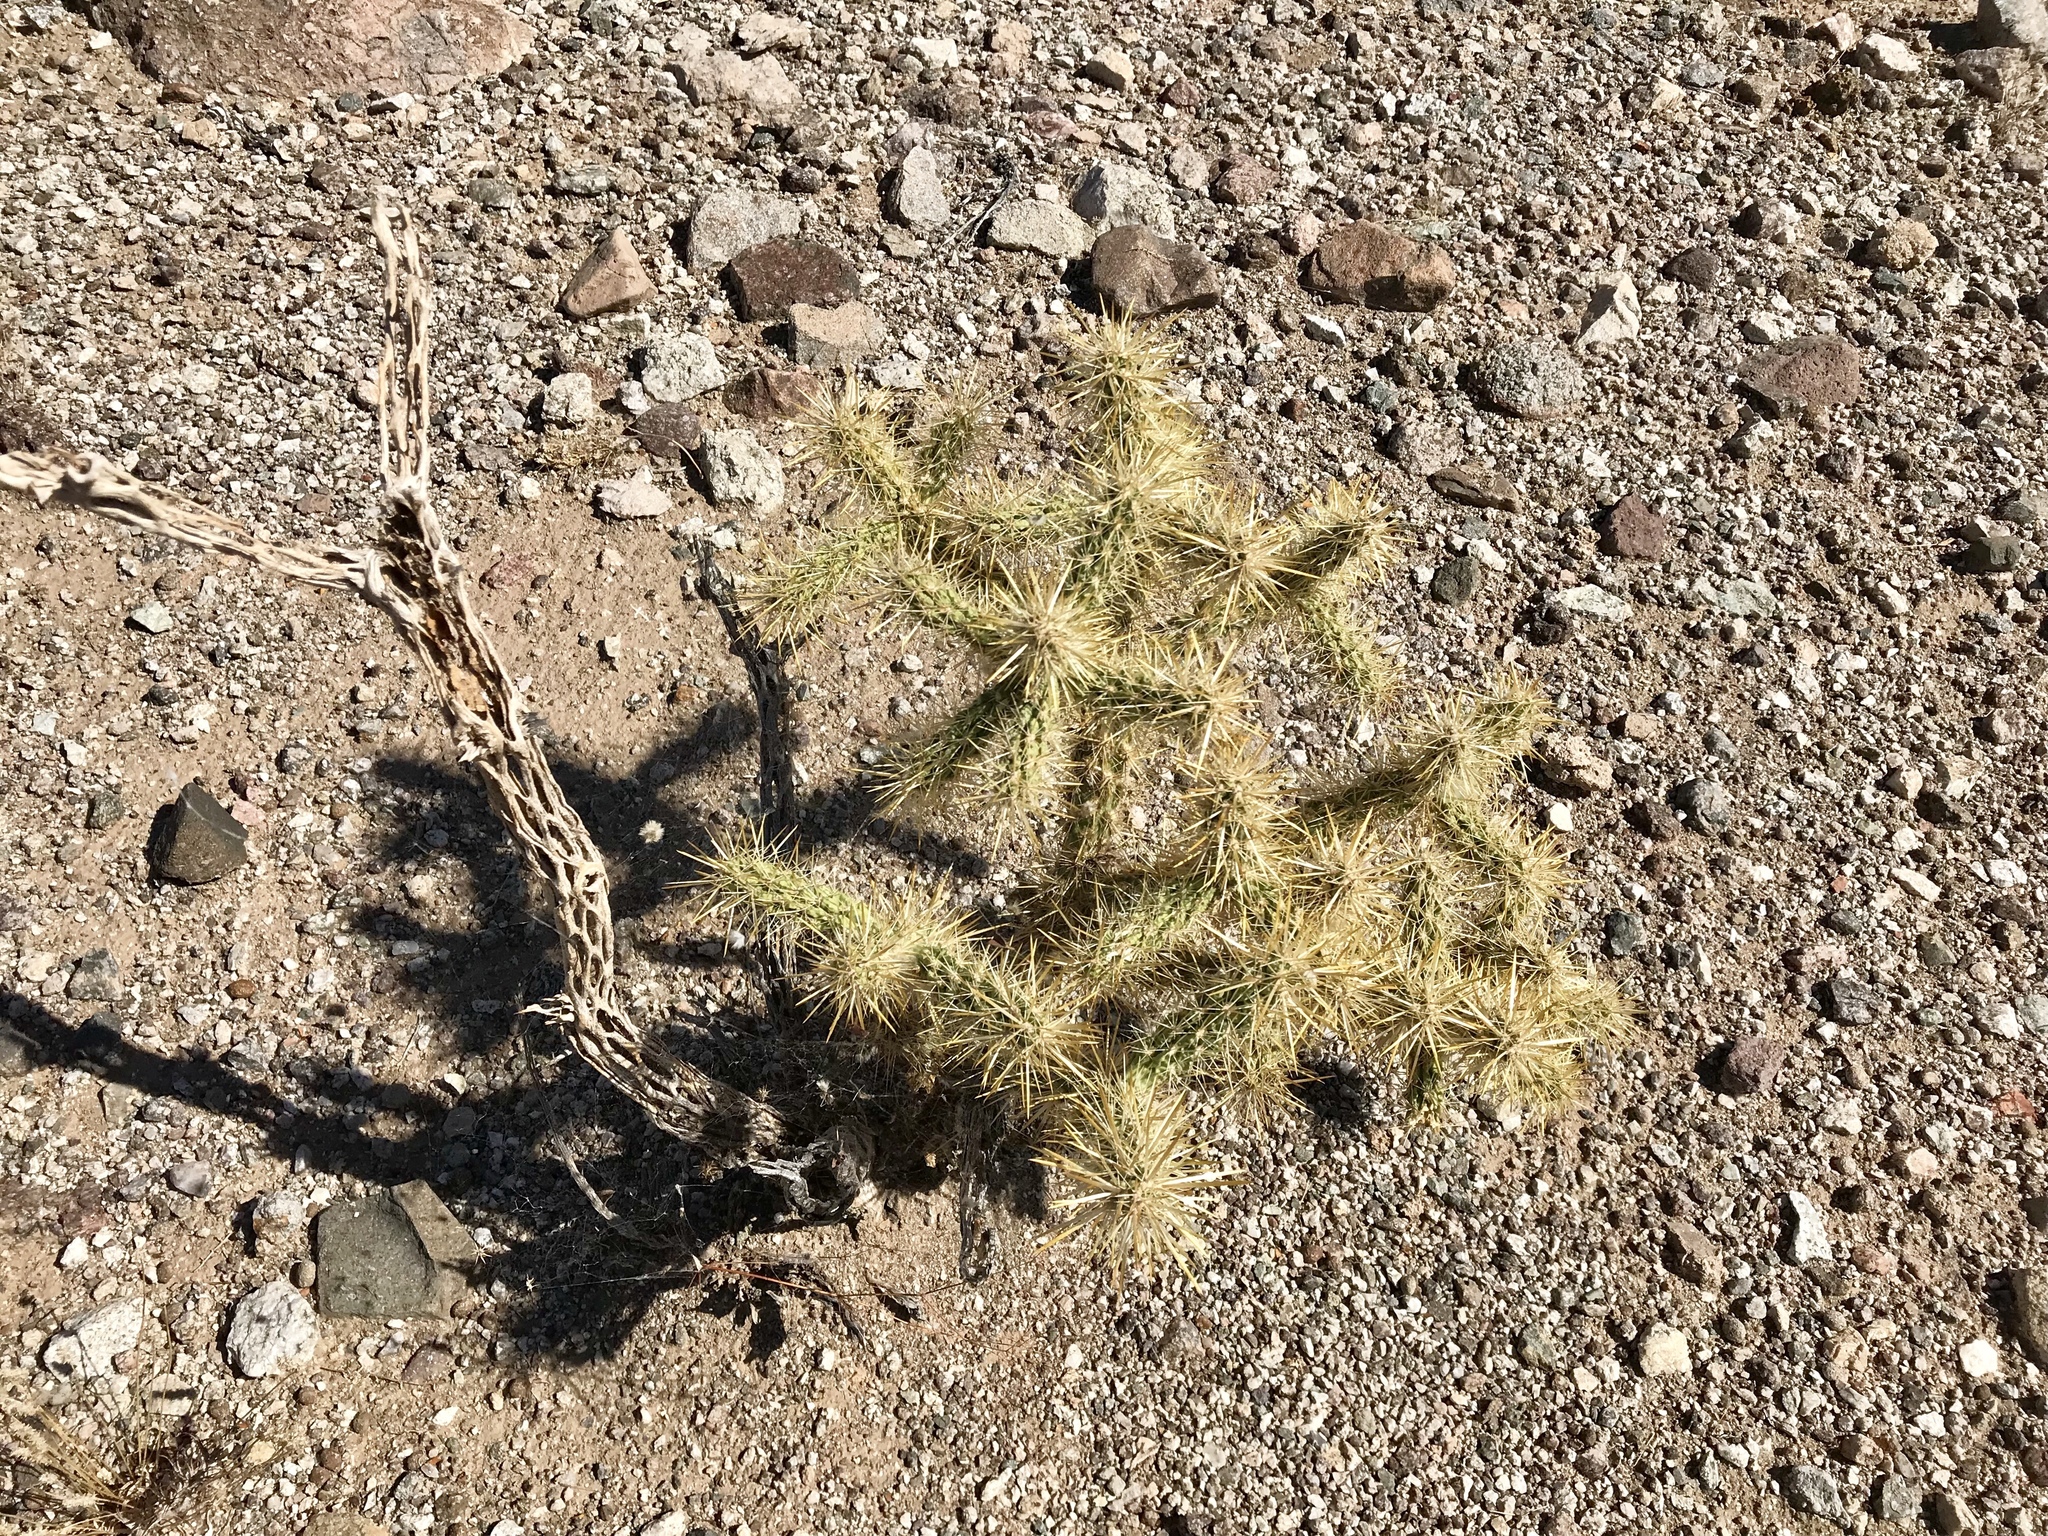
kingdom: Plantae
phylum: Tracheophyta
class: Magnoliopsida
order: Caryophyllales
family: Cactaceae
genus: Cylindropuntia
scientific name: Cylindropuntia echinocarpa
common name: Ground cholla
